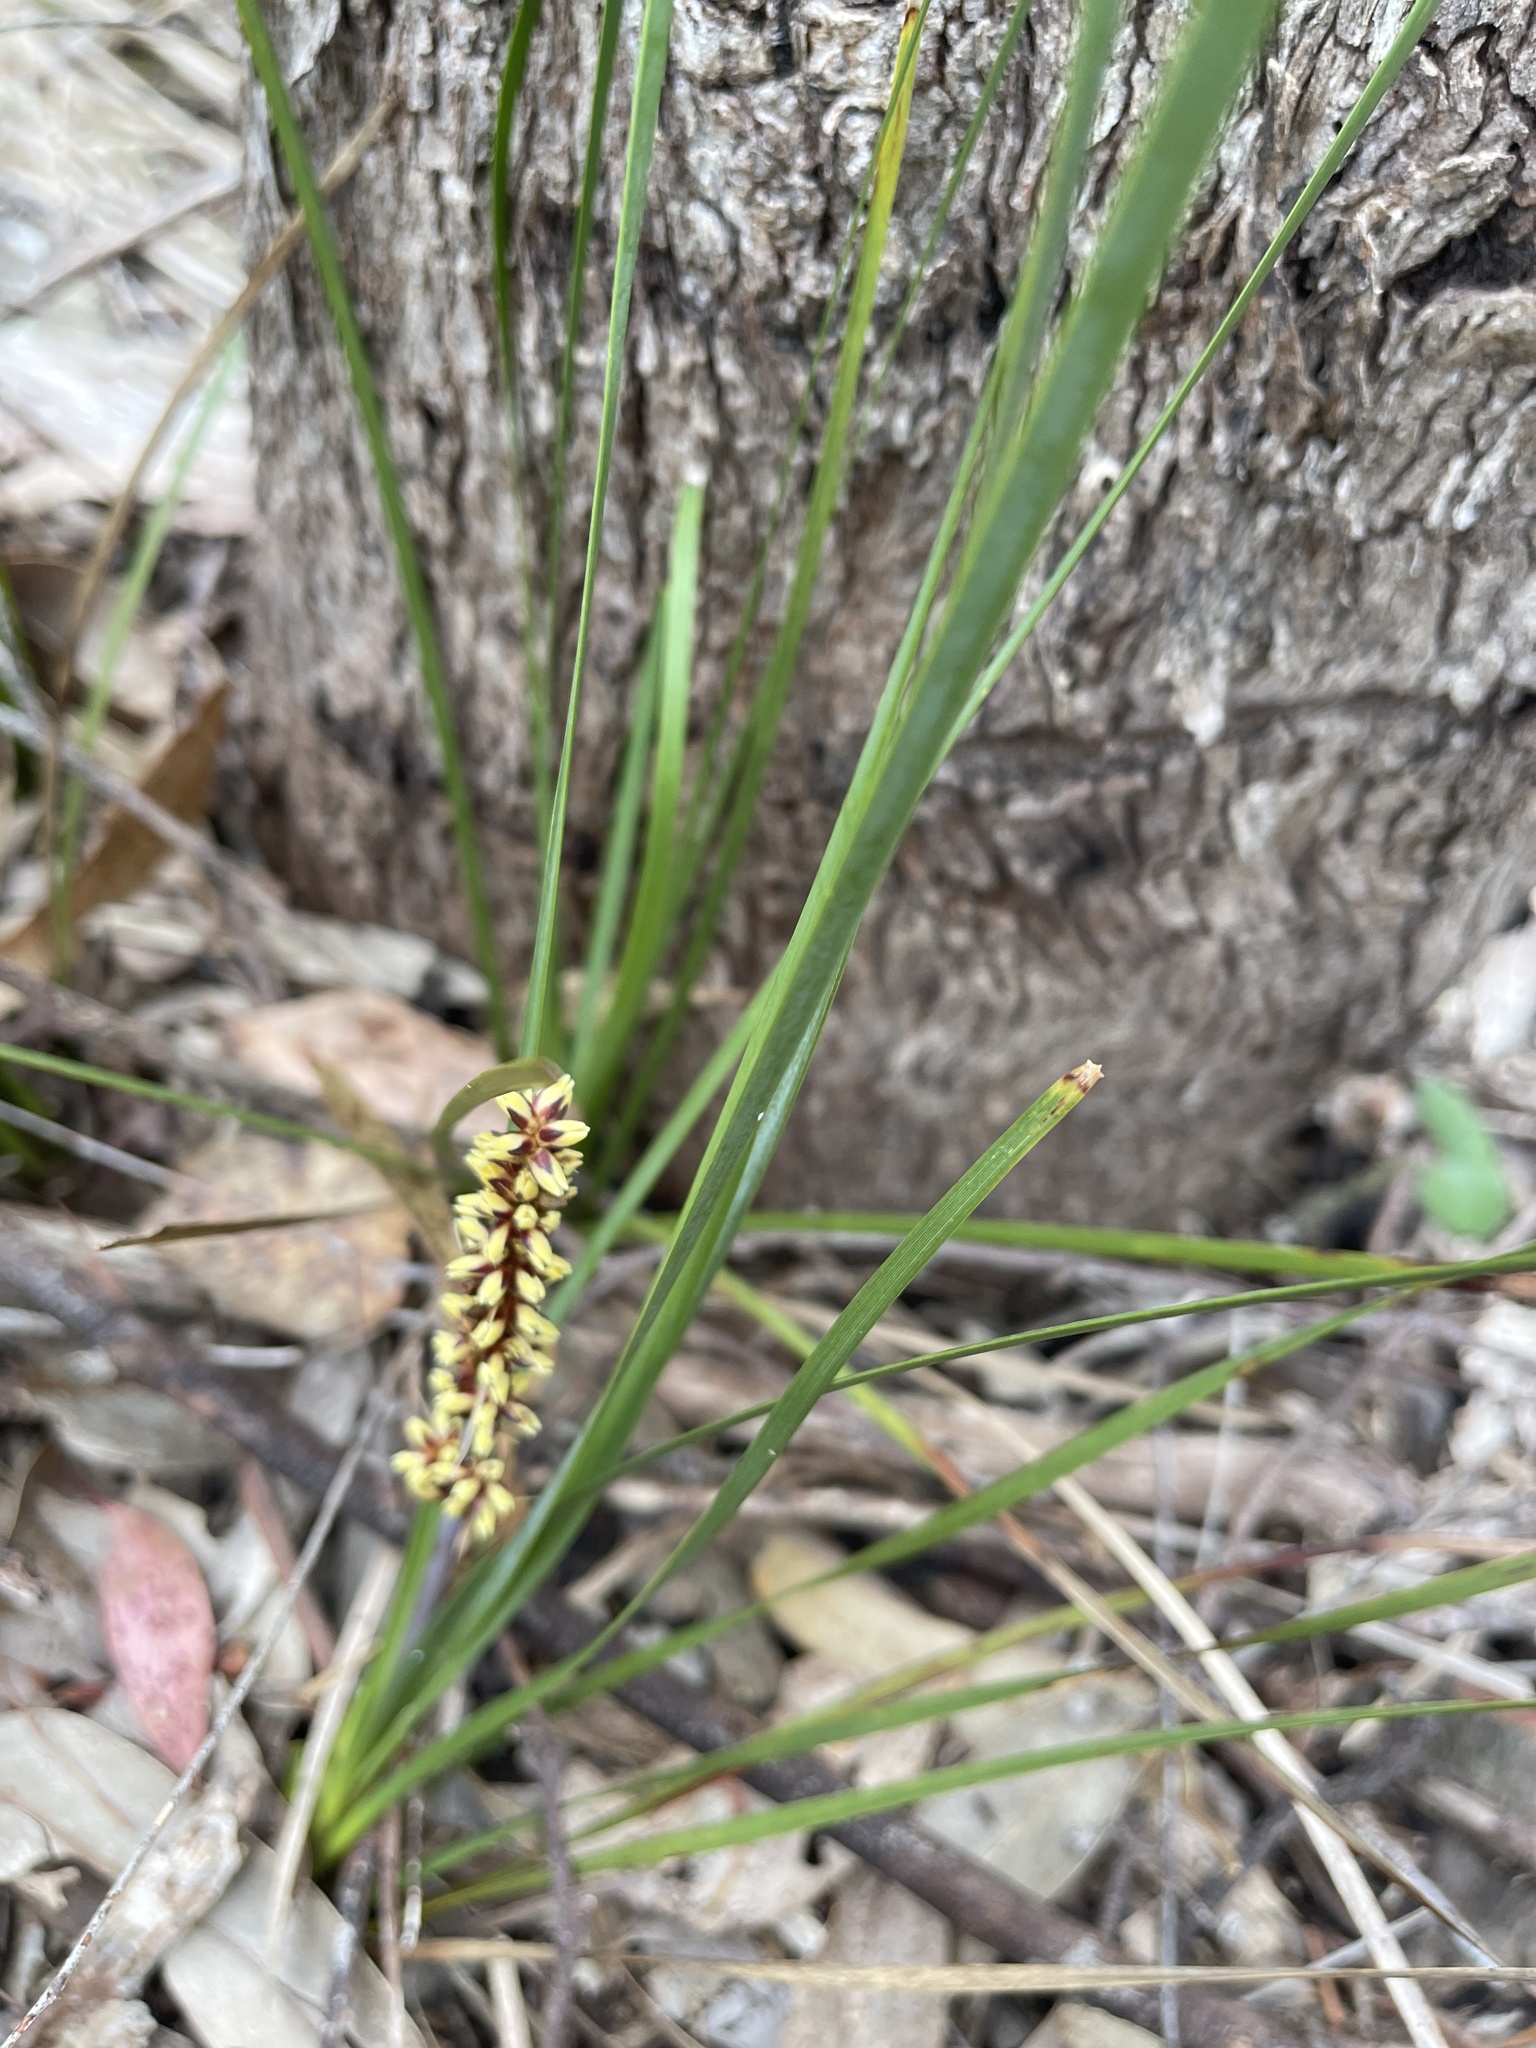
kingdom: Plantae
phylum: Tracheophyta
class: Liliopsida
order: Asparagales
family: Asparagaceae
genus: Lomandra
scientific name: Lomandra filiformis
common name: Wattle mat-rush
